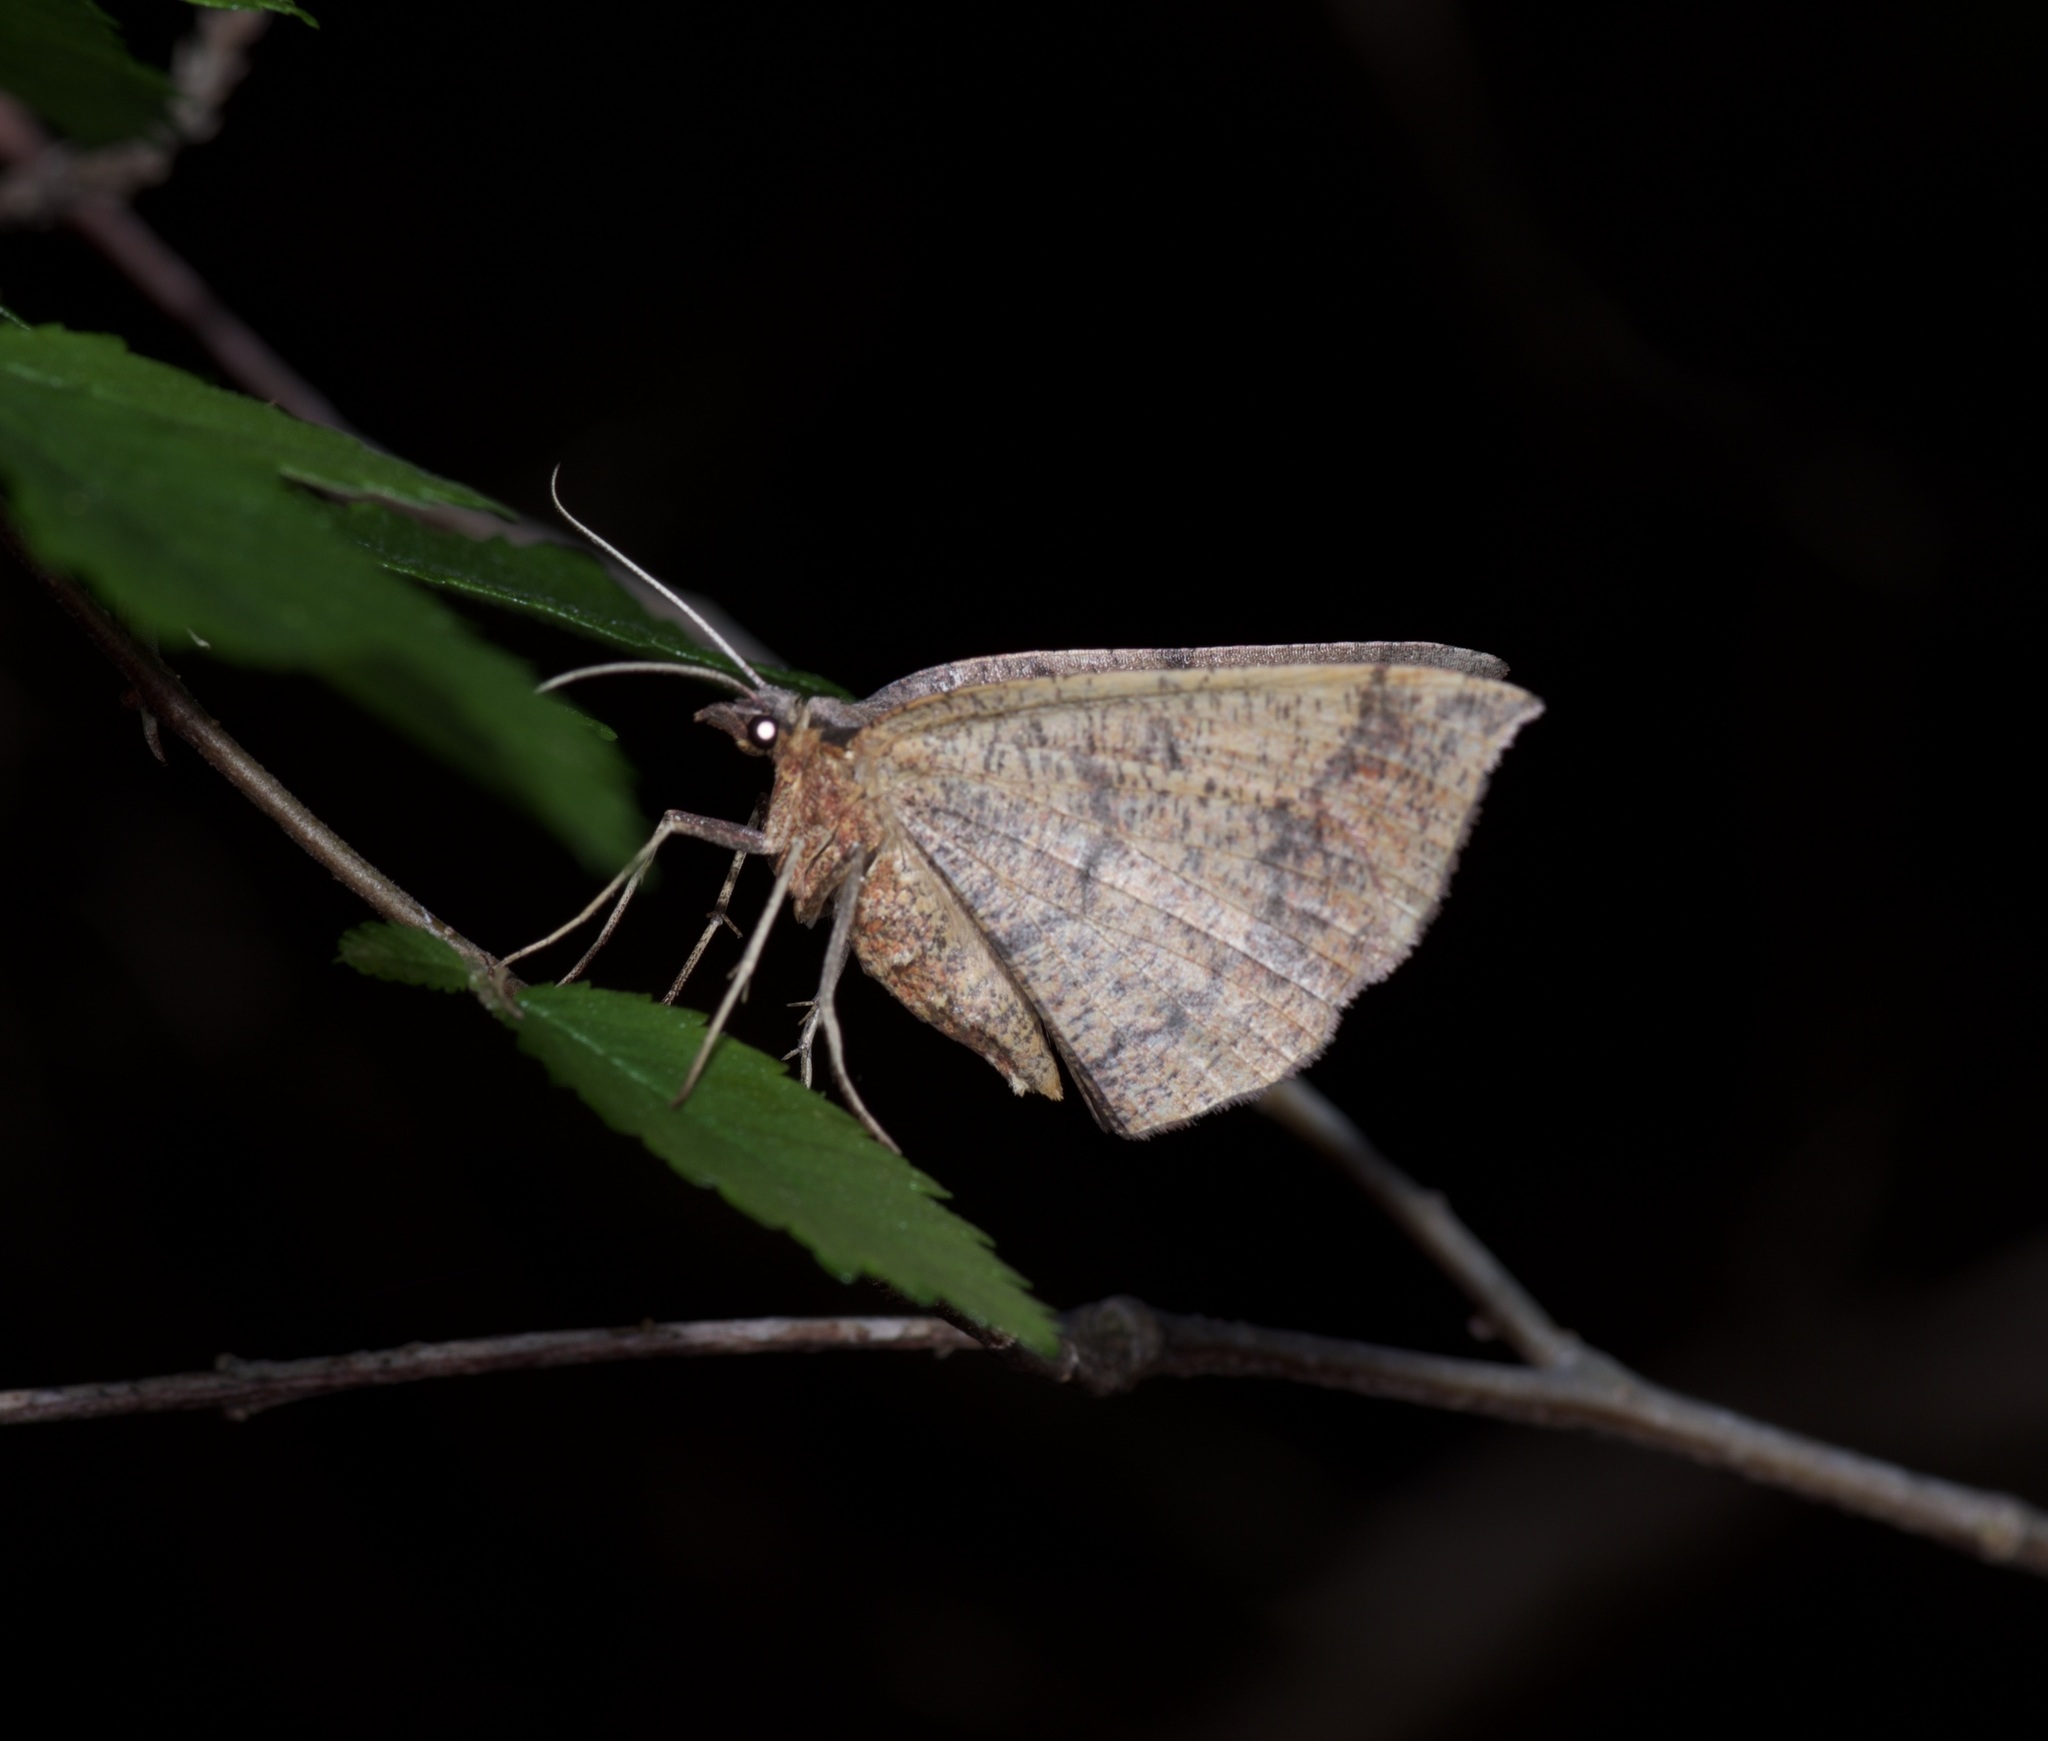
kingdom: Animalia
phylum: Arthropoda
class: Insecta
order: Lepidoptera
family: Geometridae
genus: Erastria
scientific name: Erastria cruentaria
